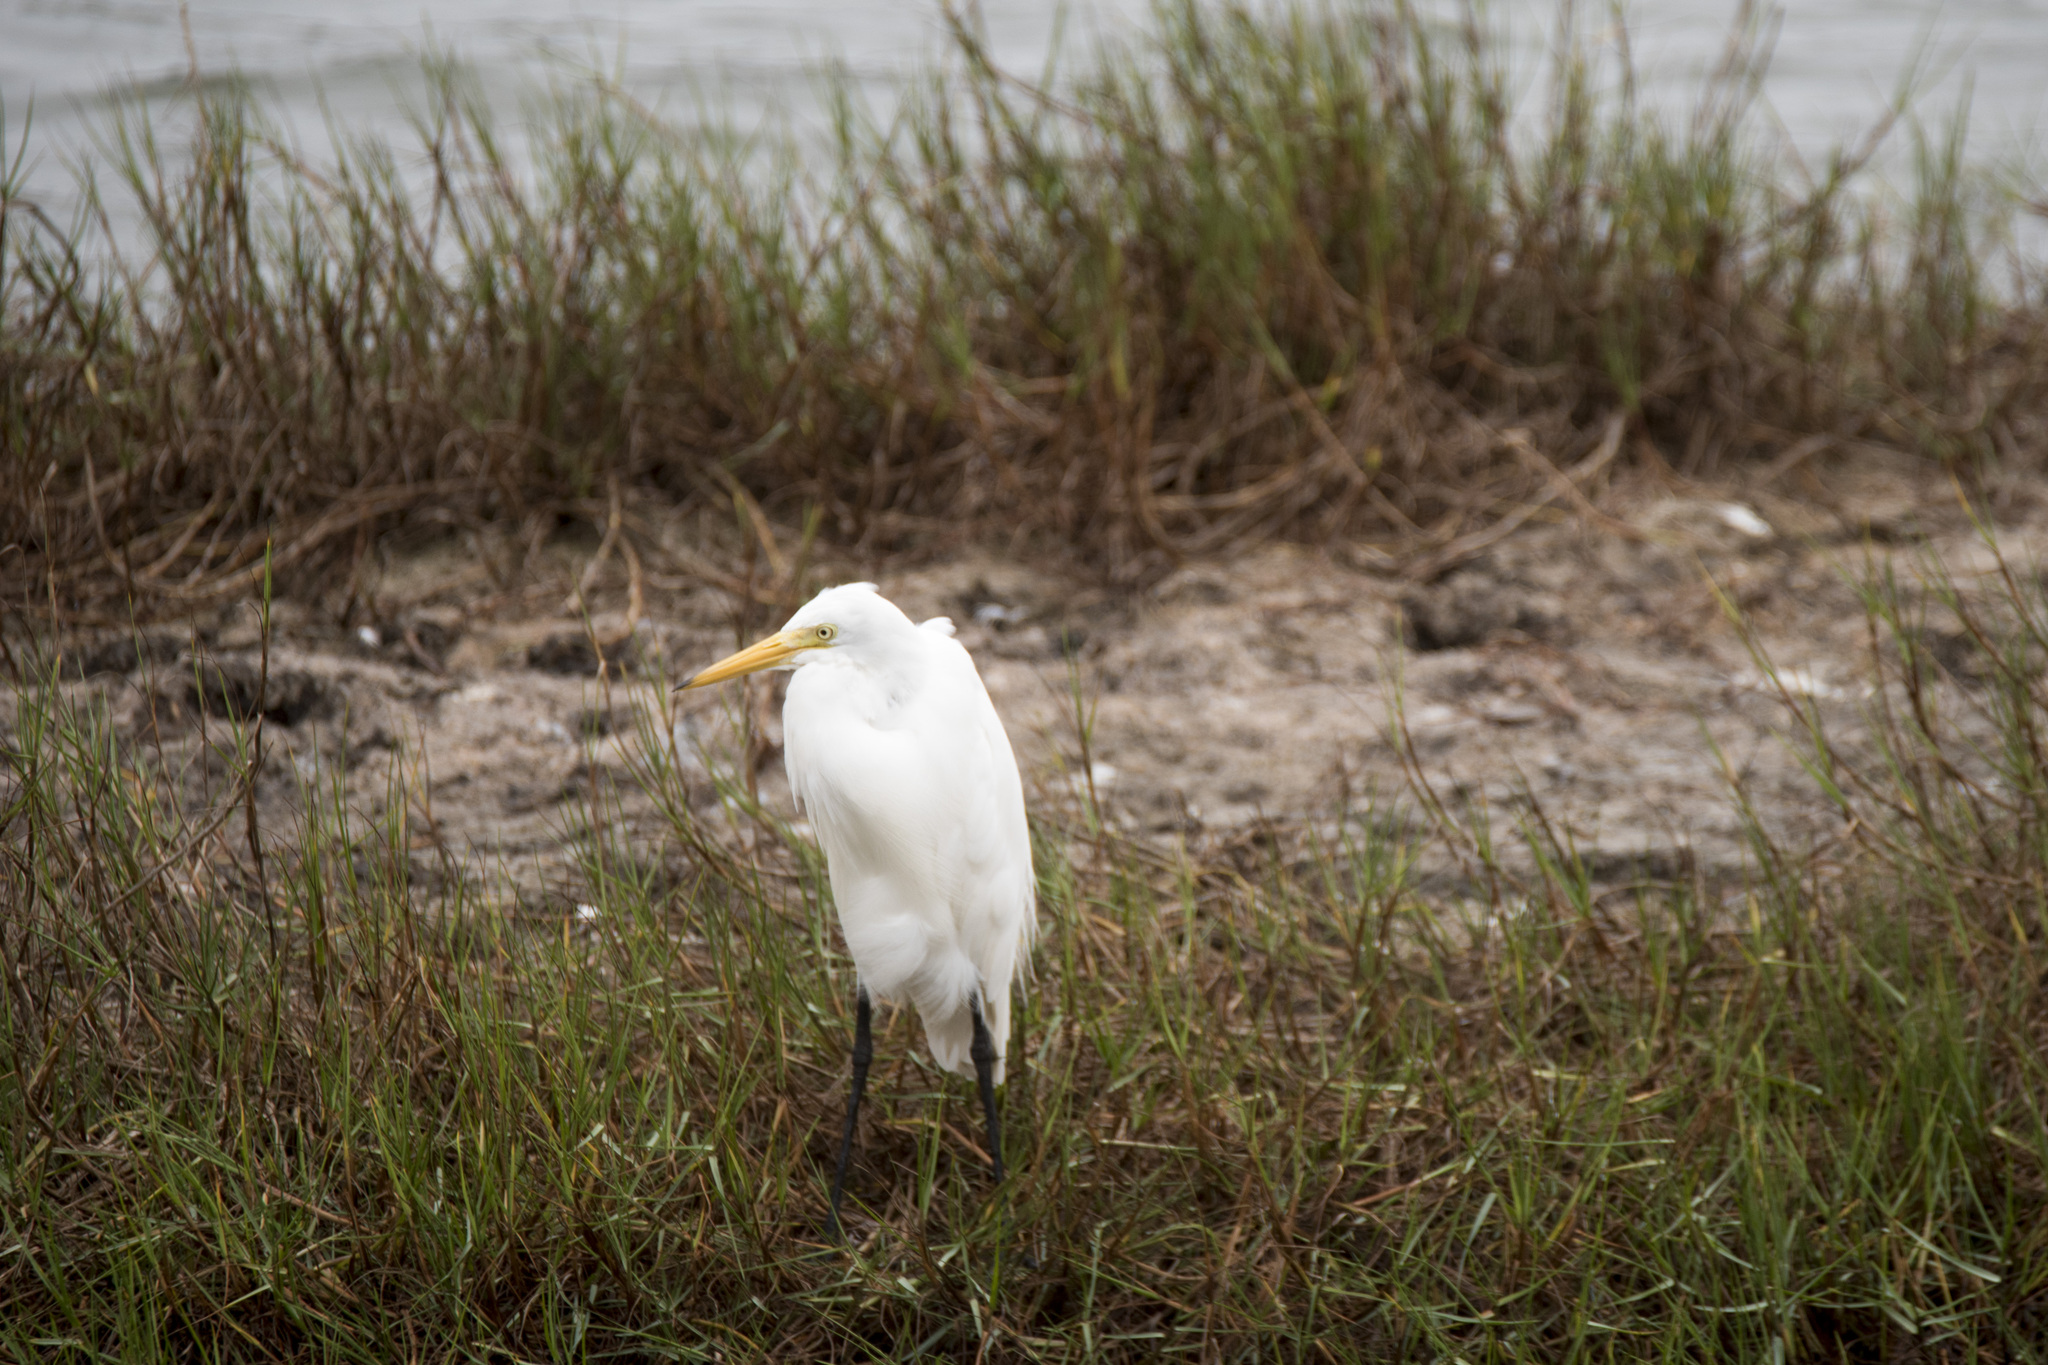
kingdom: Animalia
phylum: Chordata
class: Aves
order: Pelecaniformes
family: Ardeidae
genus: Egretta
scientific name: Egretta intermedia
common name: Intermediate egret
